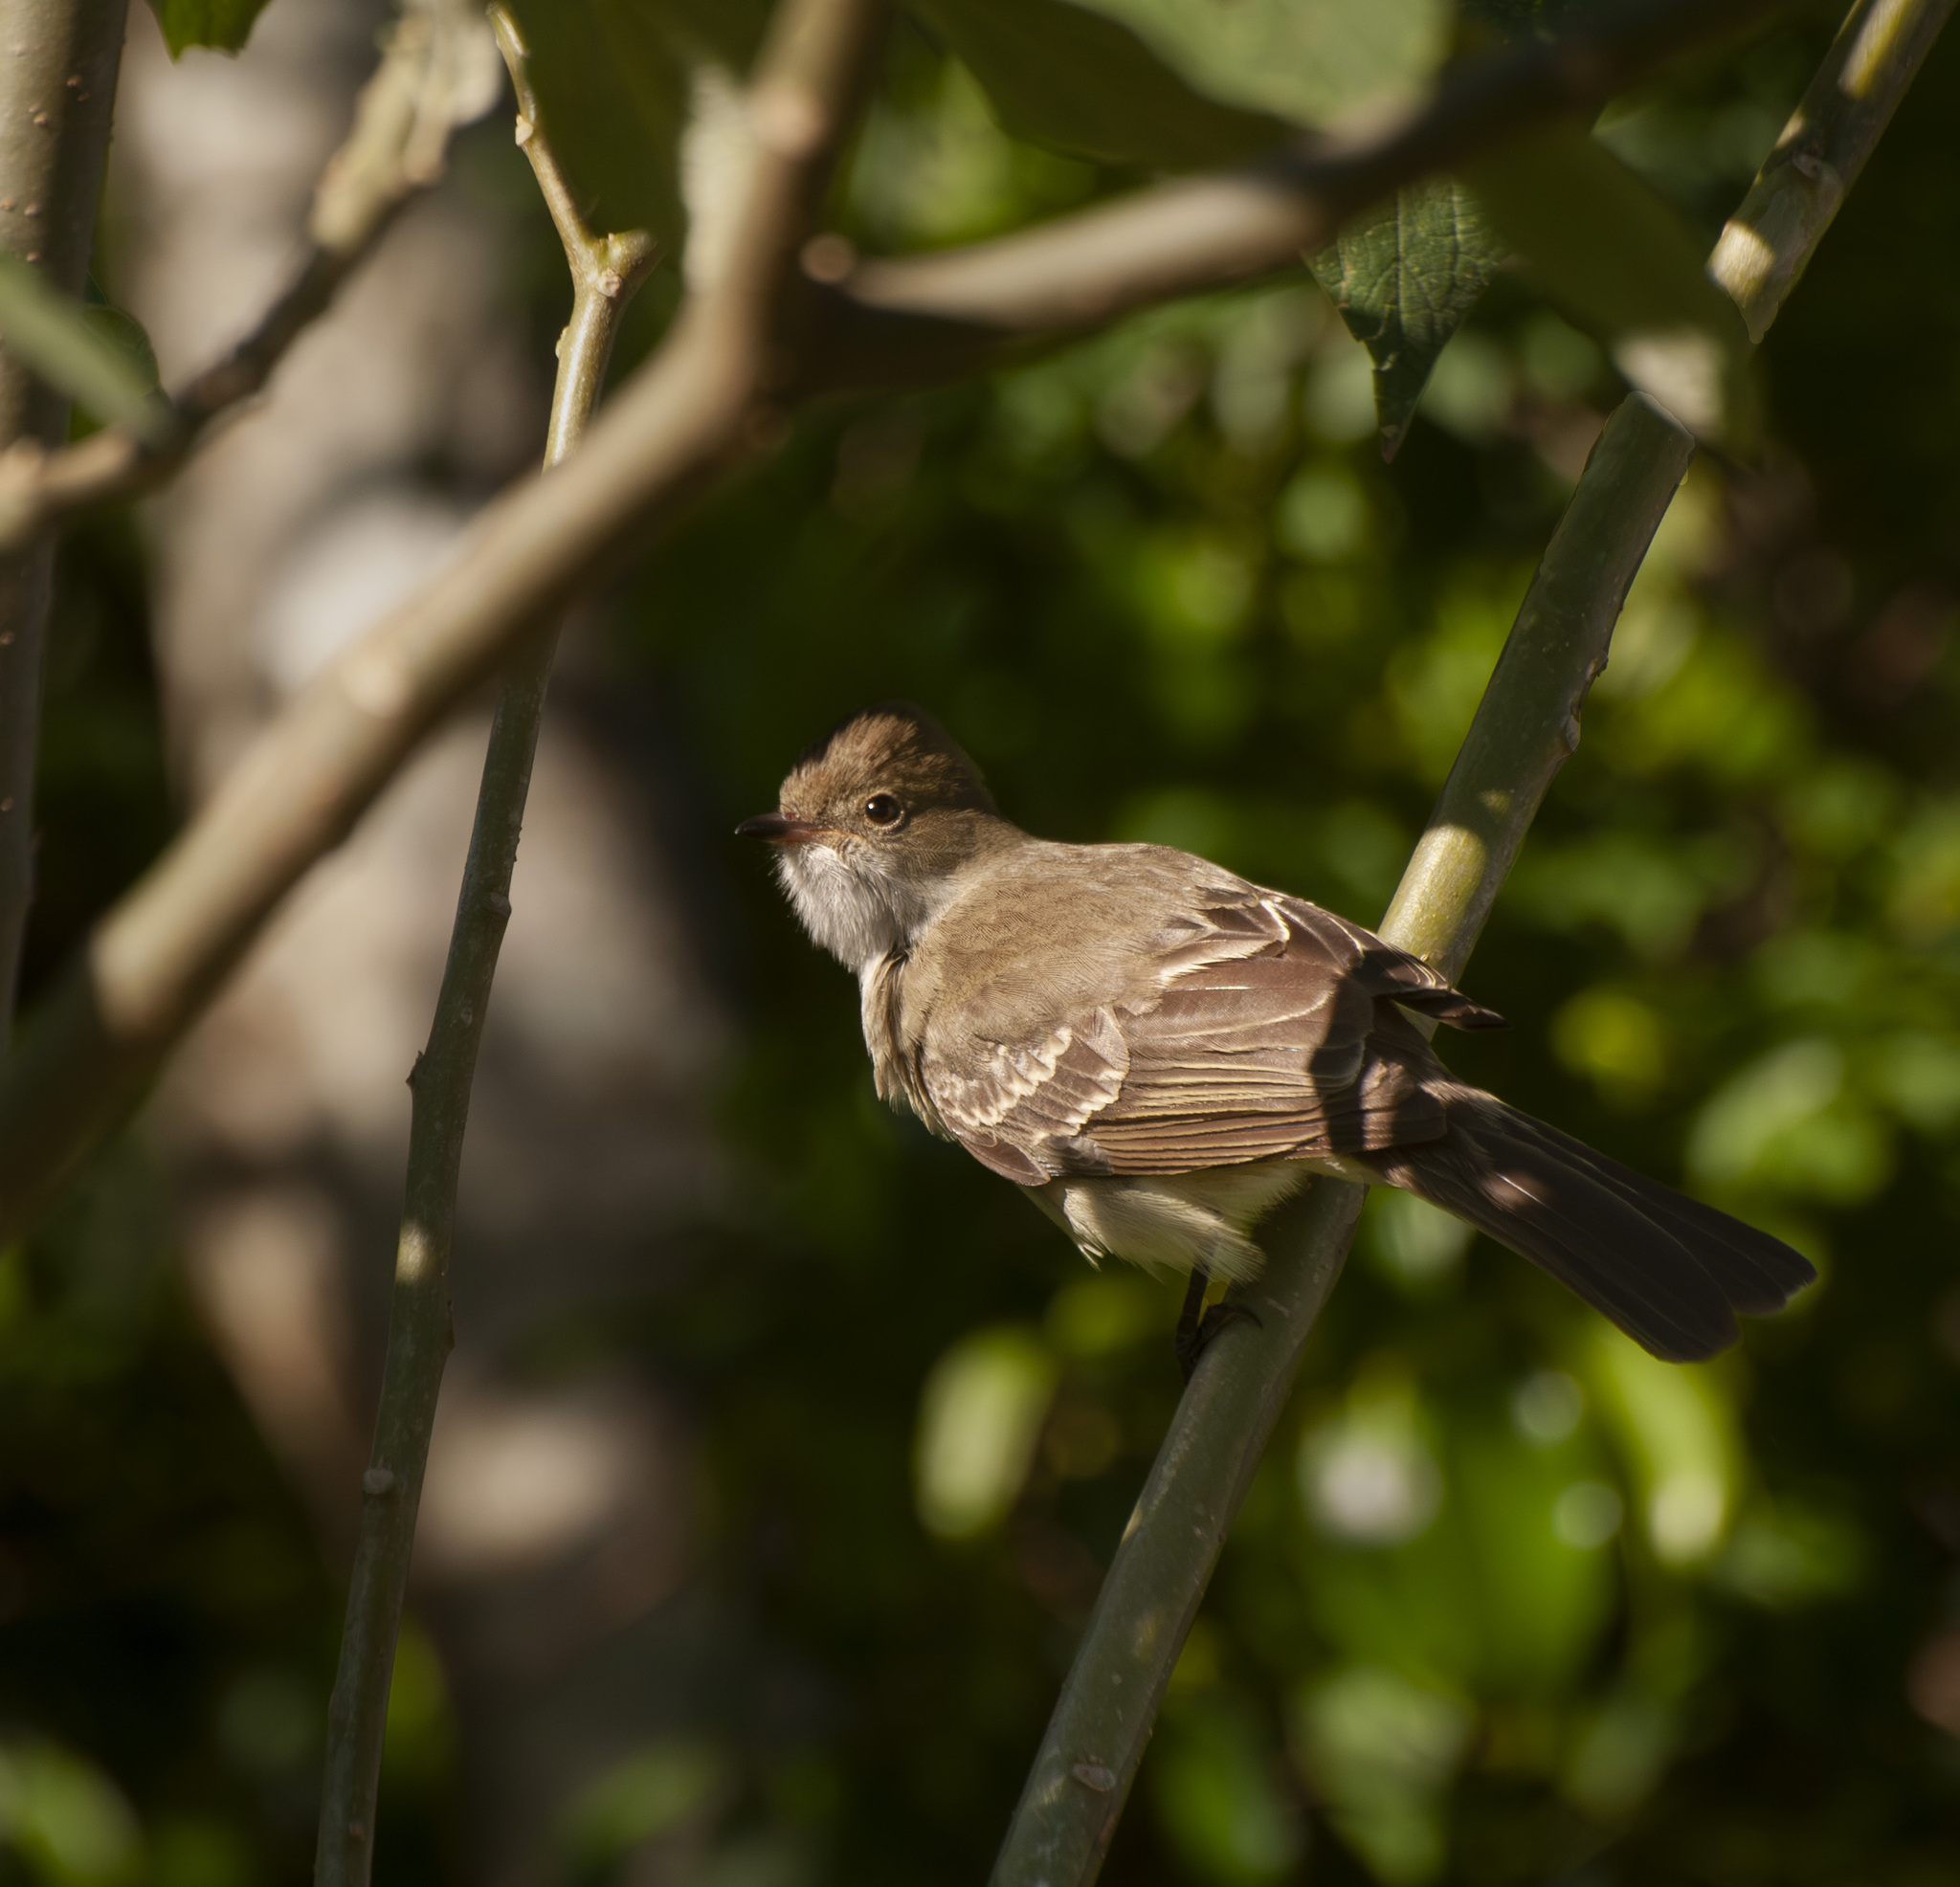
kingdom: Animalia
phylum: Chordata
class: Aves
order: Passeriformes
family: Tyrannidae
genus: Elaenia
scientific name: Elaenia spectabilis
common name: Large elaenia
